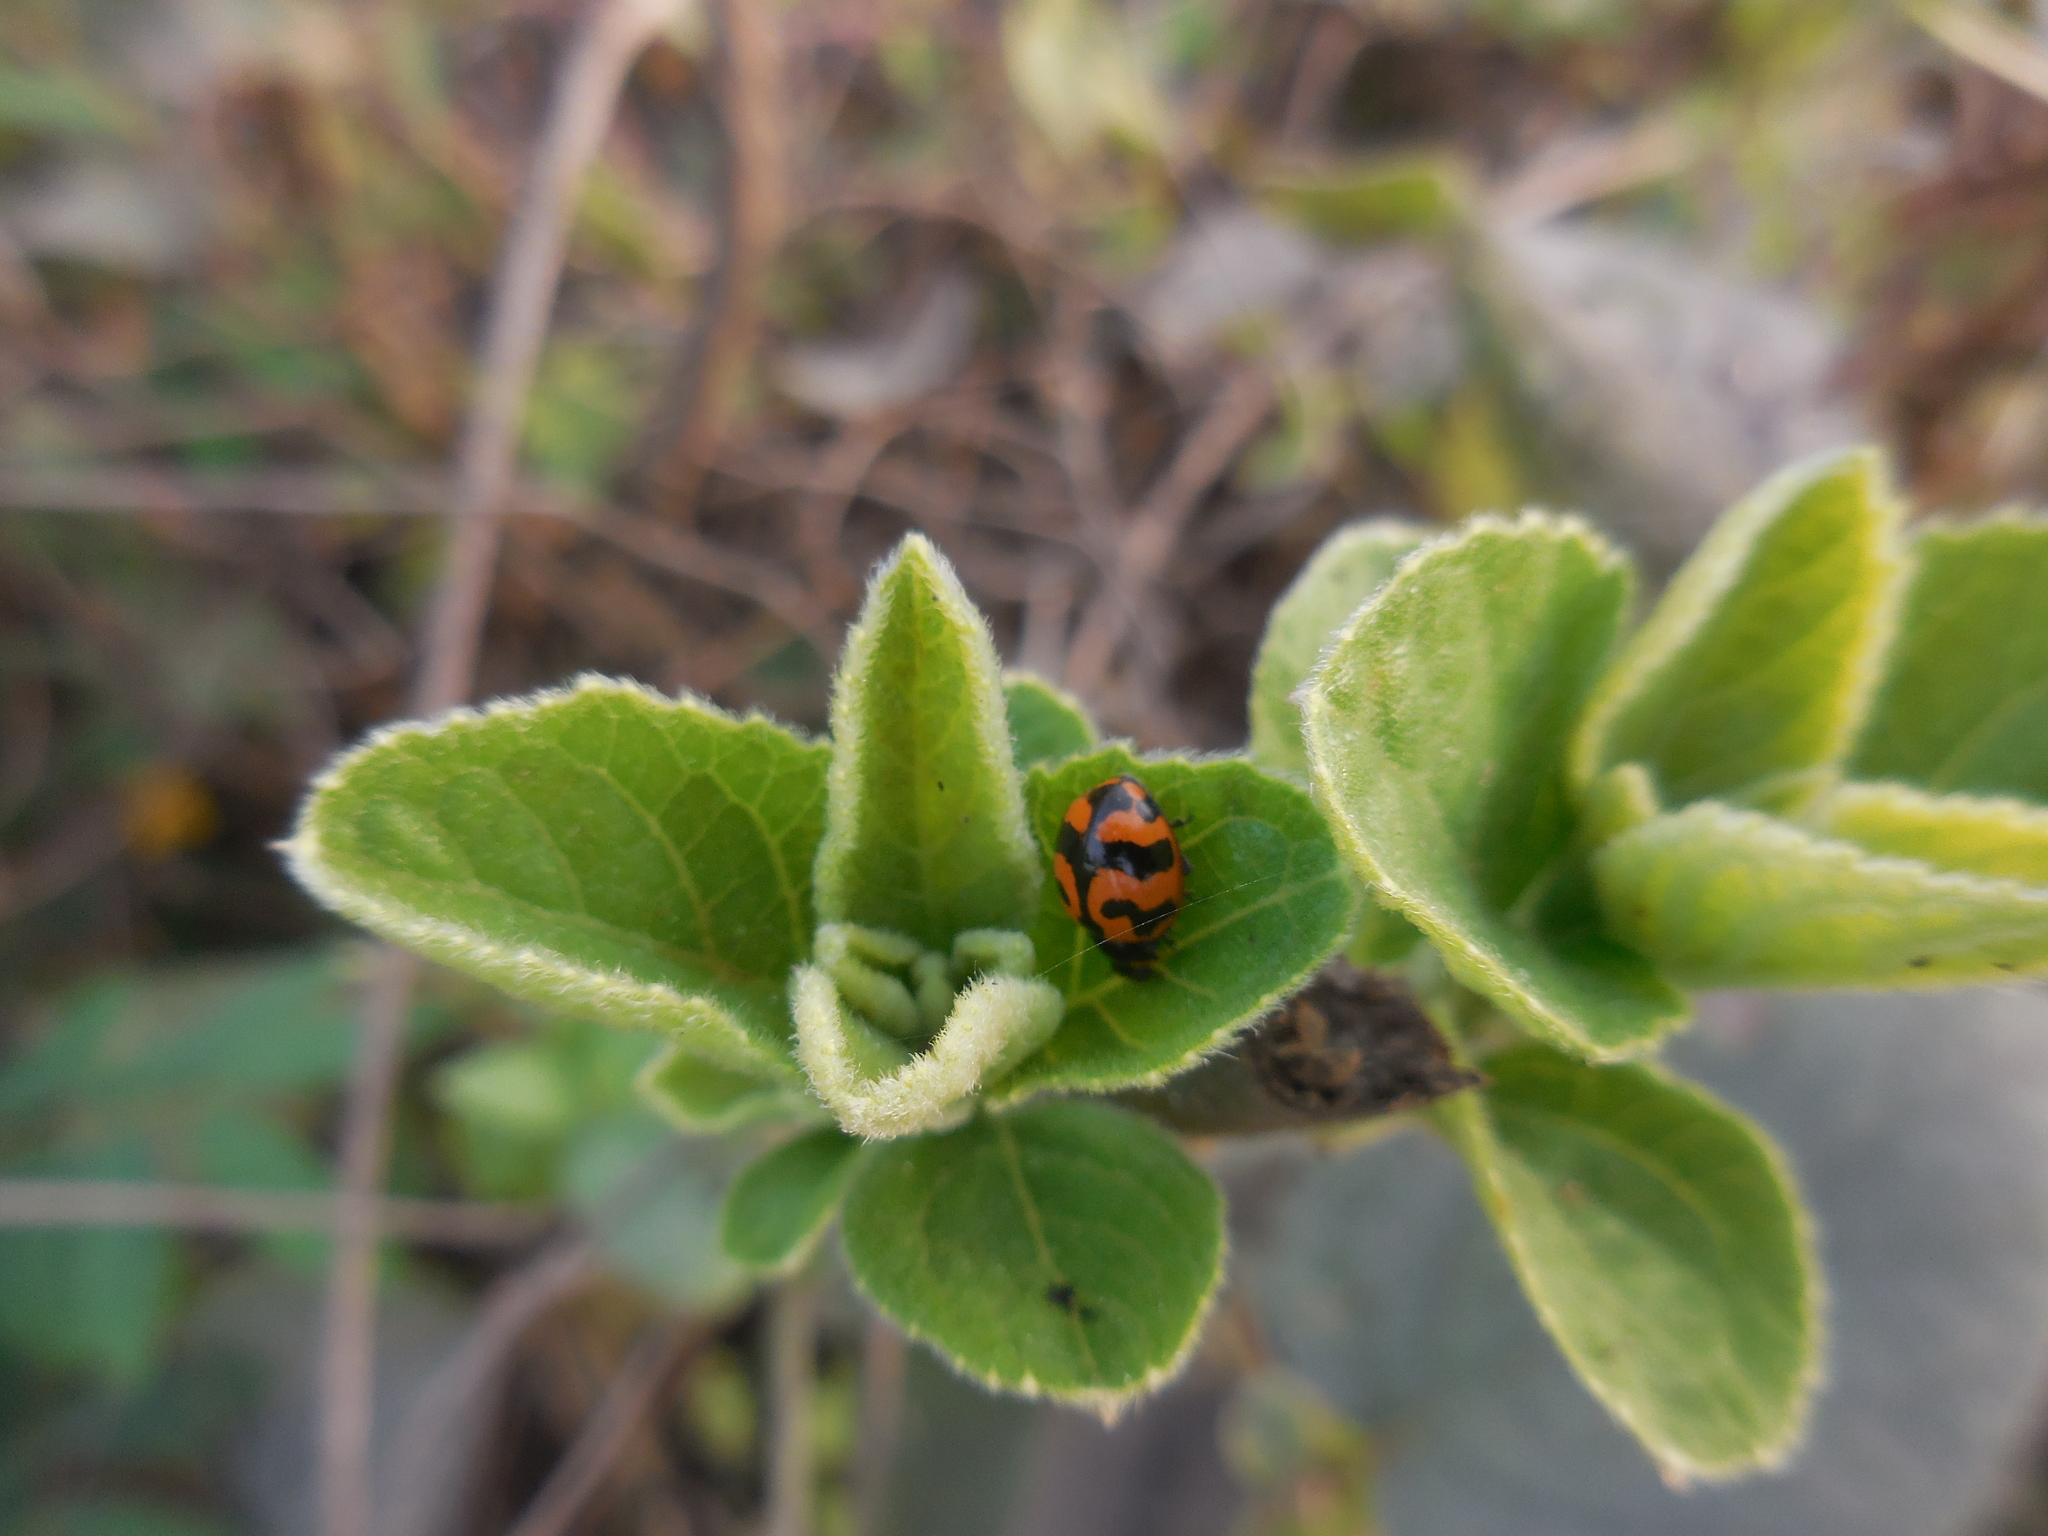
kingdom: Animalia
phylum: Arthropoda
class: Insecta
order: Coleoptera
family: Coccinellidae
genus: Coccinella
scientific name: Coccinella transversalis
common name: Transverse lady beetle
